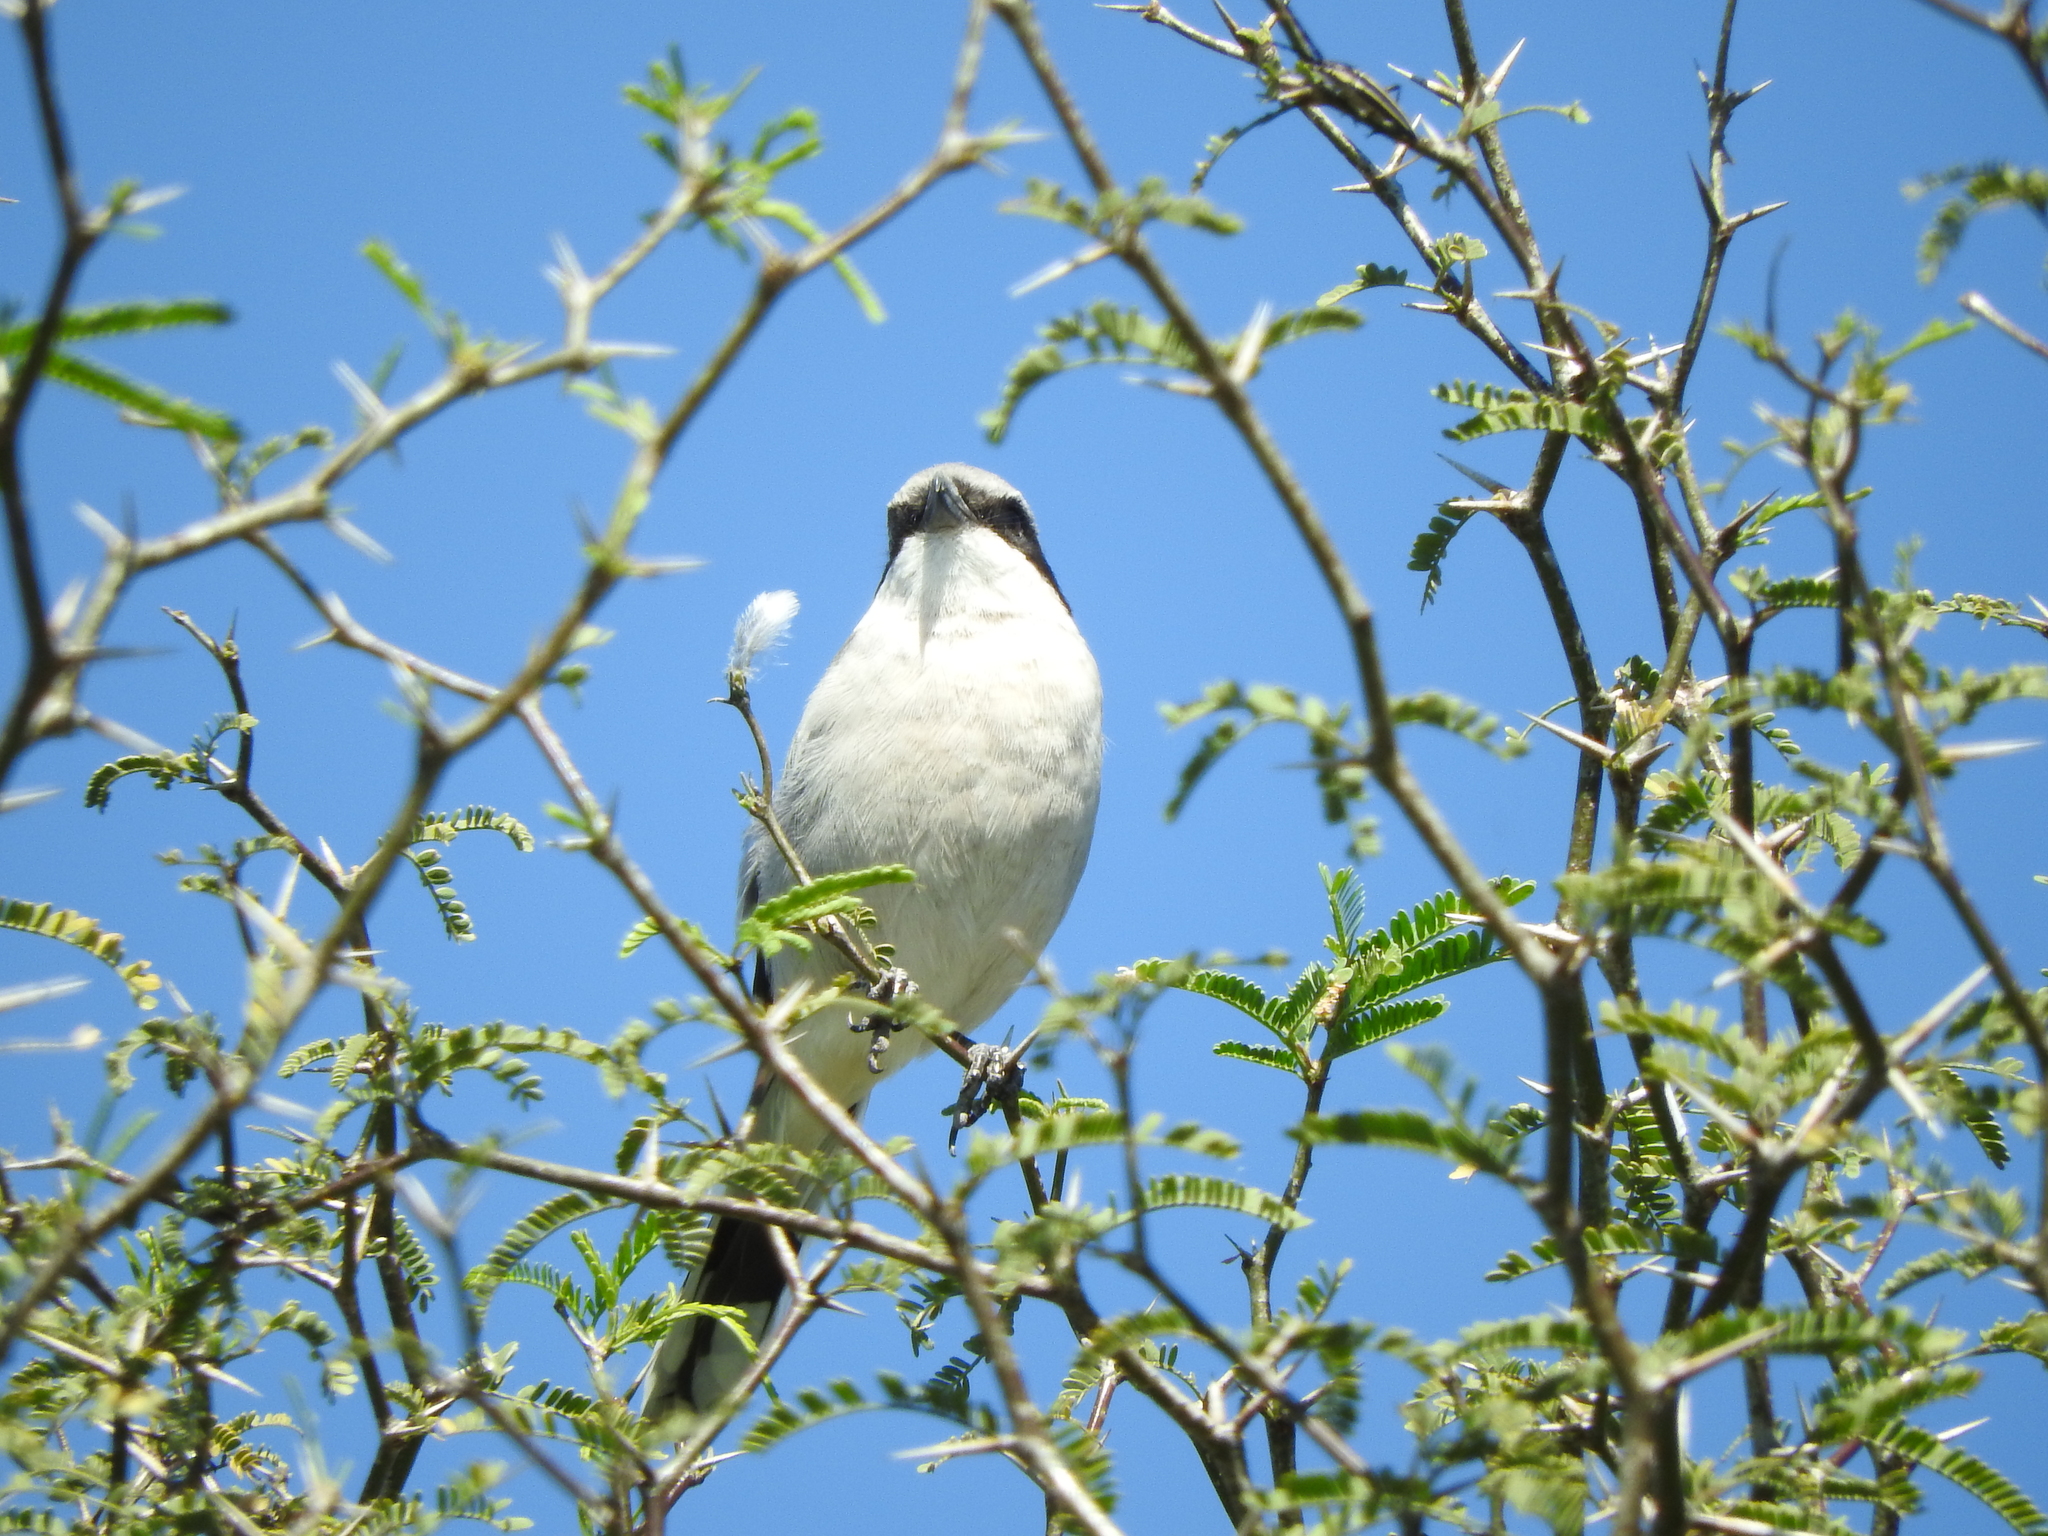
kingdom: Animalia
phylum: Chordata
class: Aves
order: Passeriformes
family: Laniidae
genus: Lanius
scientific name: Lanius ludovicianus
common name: Loggerhead shrike
